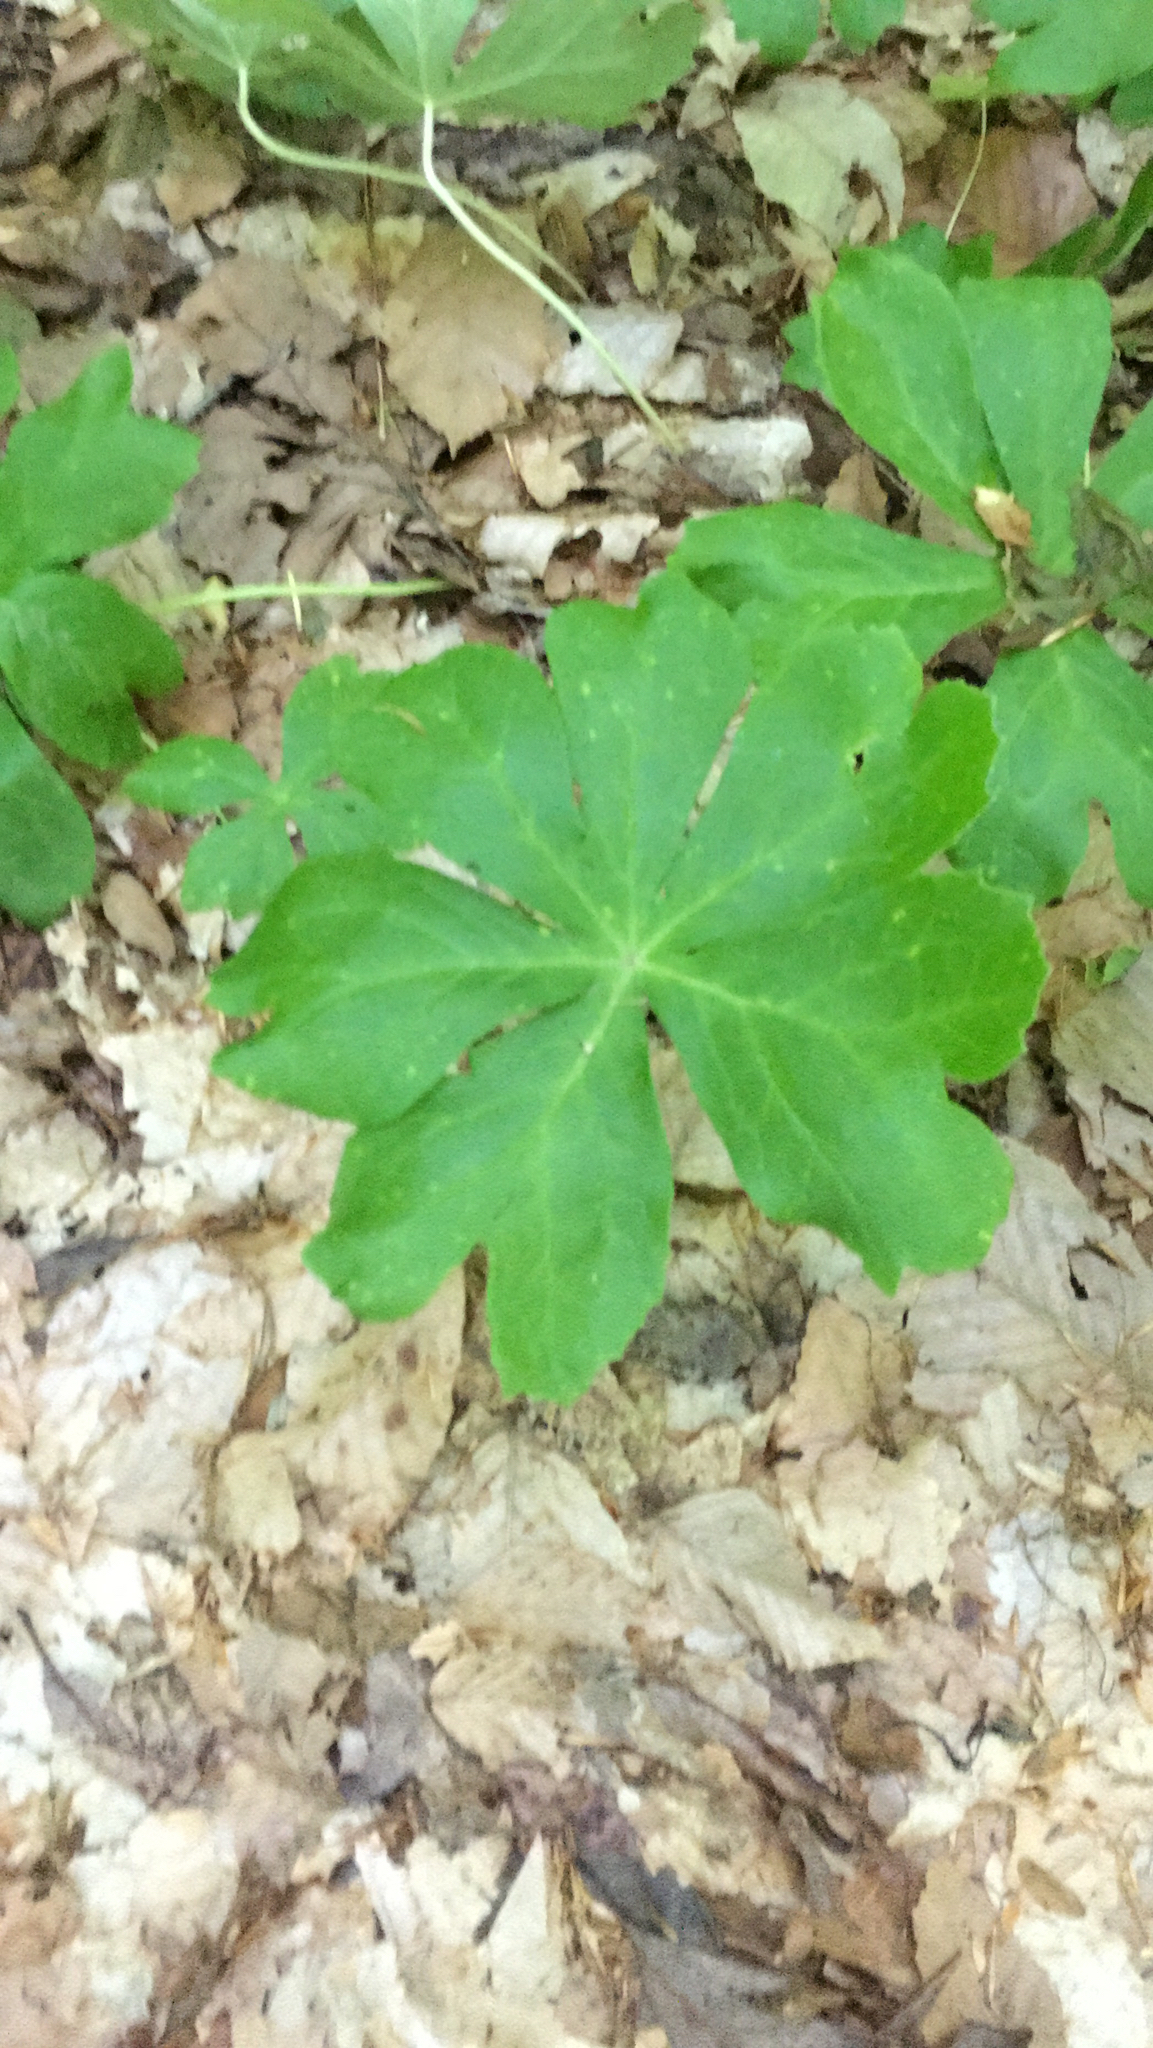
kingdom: Plantae
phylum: Tracheophyta
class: Magnoliopsida
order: Ranunculales
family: Berberidaceae
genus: Podophyllum
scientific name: Podophyllum peltatum
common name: Wild mandrake
